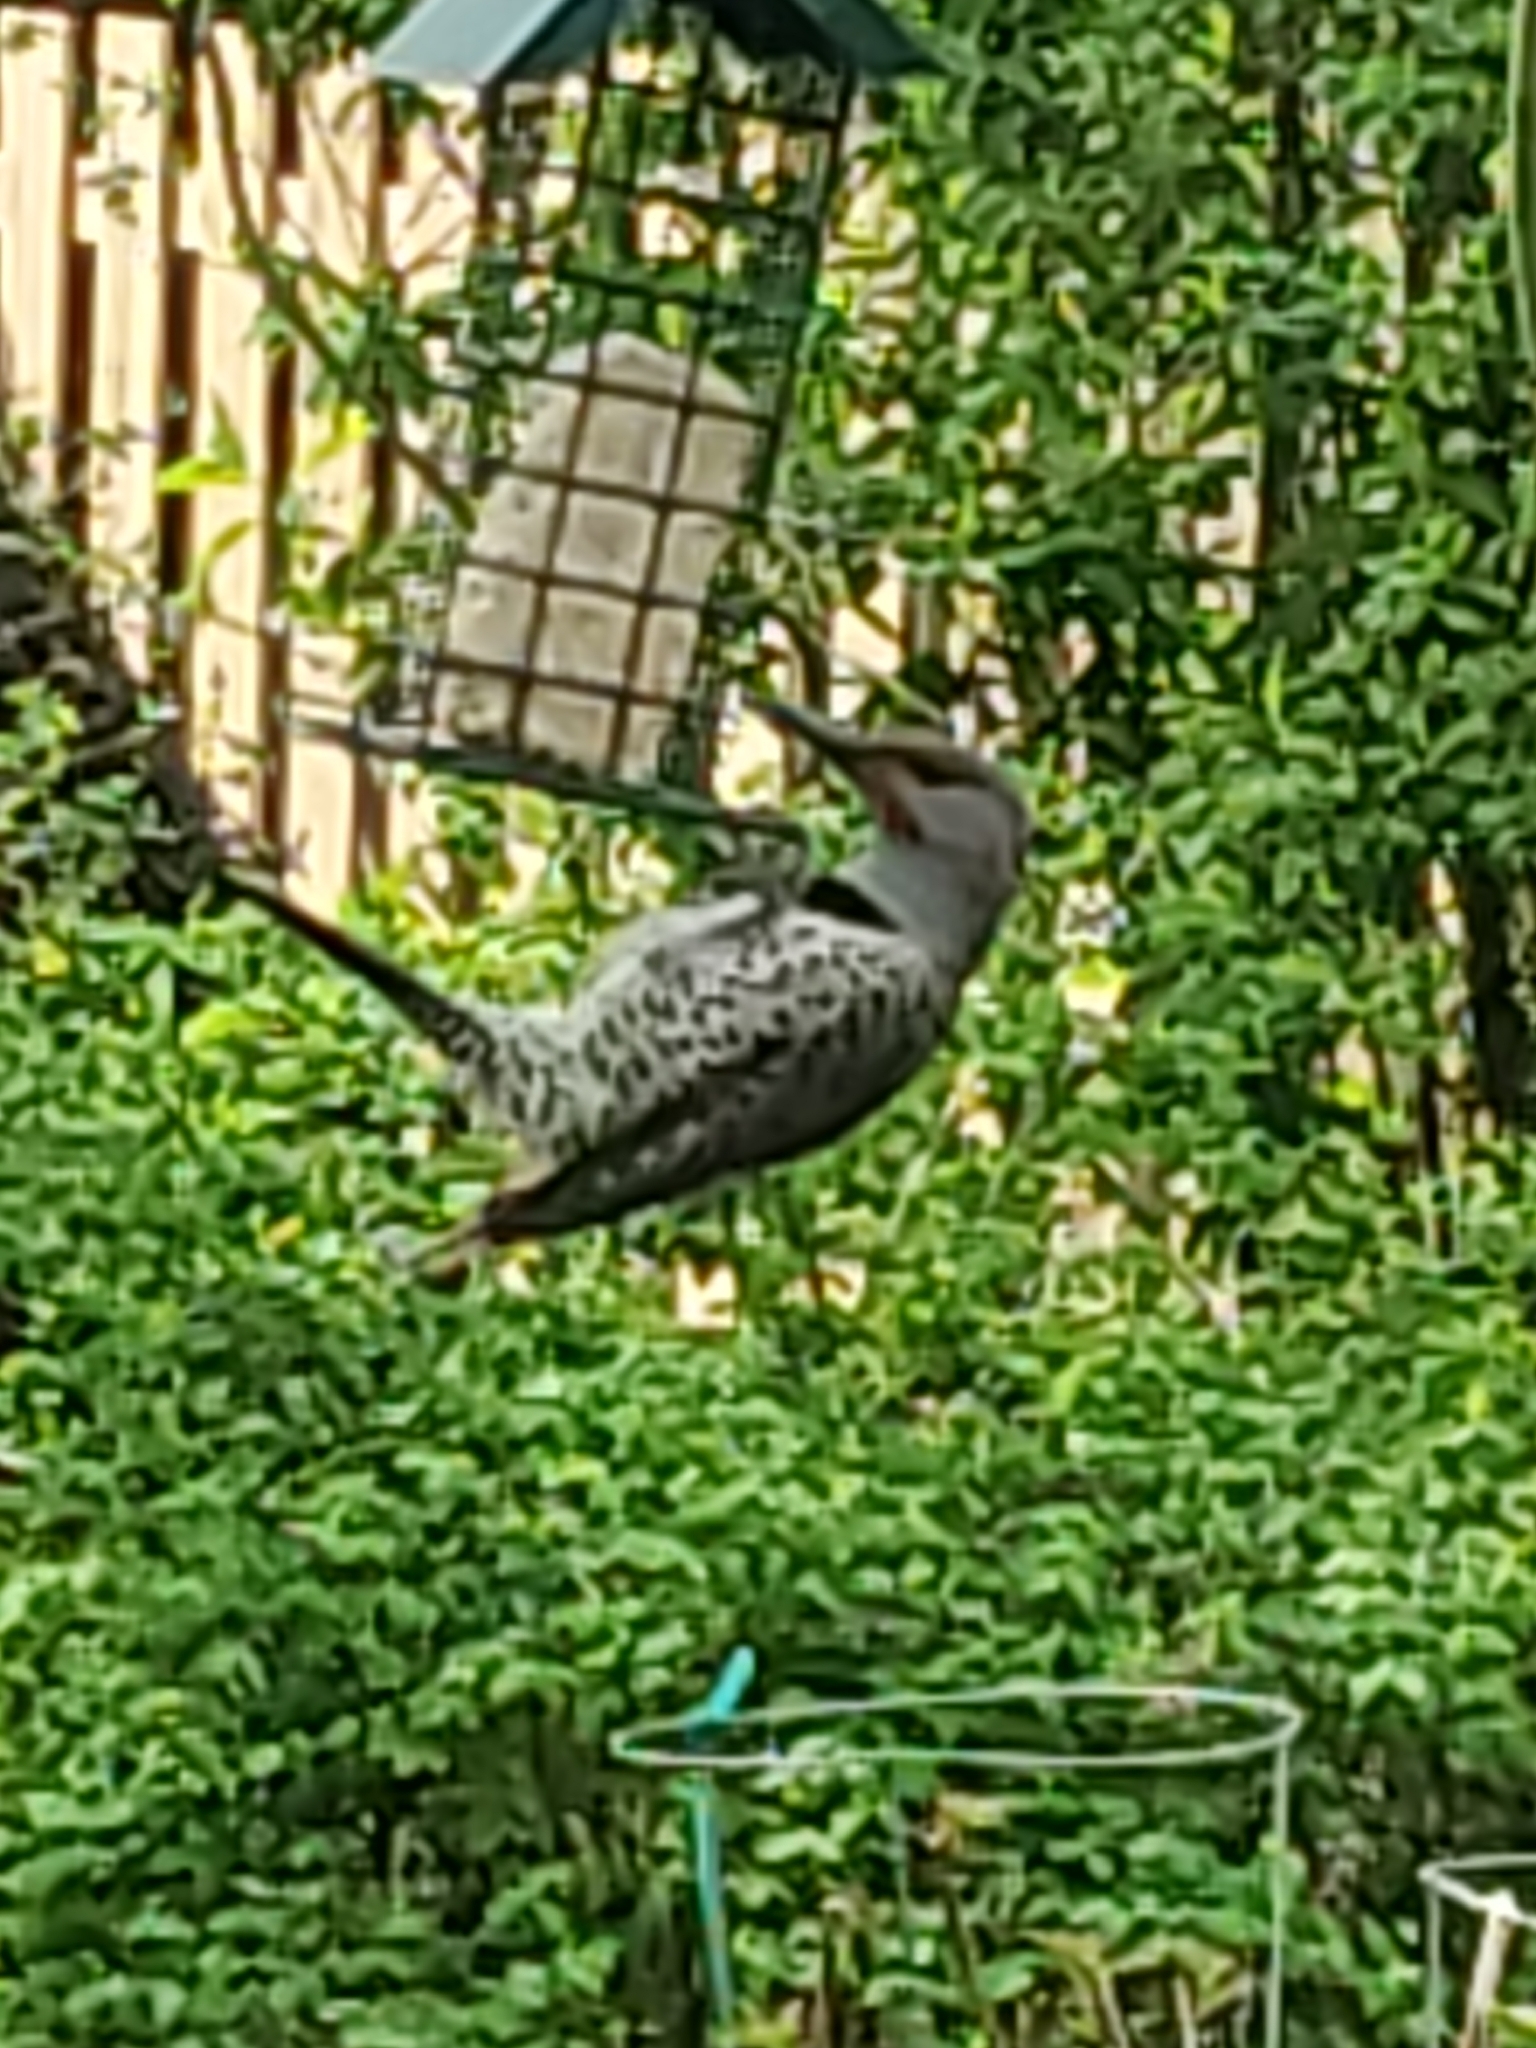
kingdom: Animalia
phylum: Chordata
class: Aves
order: Piciformes
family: Picidae
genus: Colaptes
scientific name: Colaptes auratus
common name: Northern flicker
